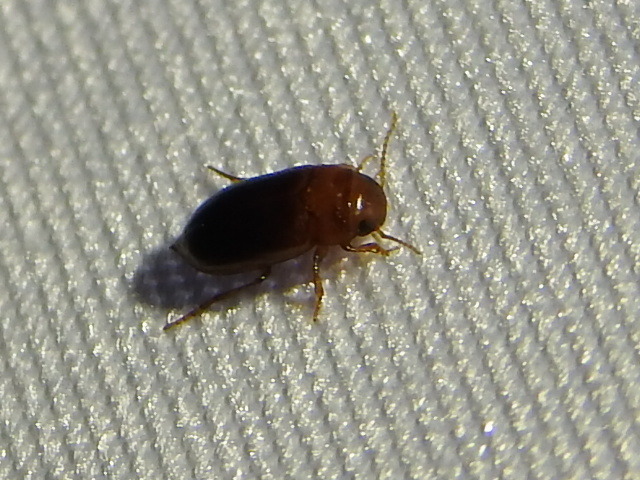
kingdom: Animalia
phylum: Arthropoda
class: Insecta
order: Coleoptera
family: Dytiscidae
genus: Celina
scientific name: Celina
